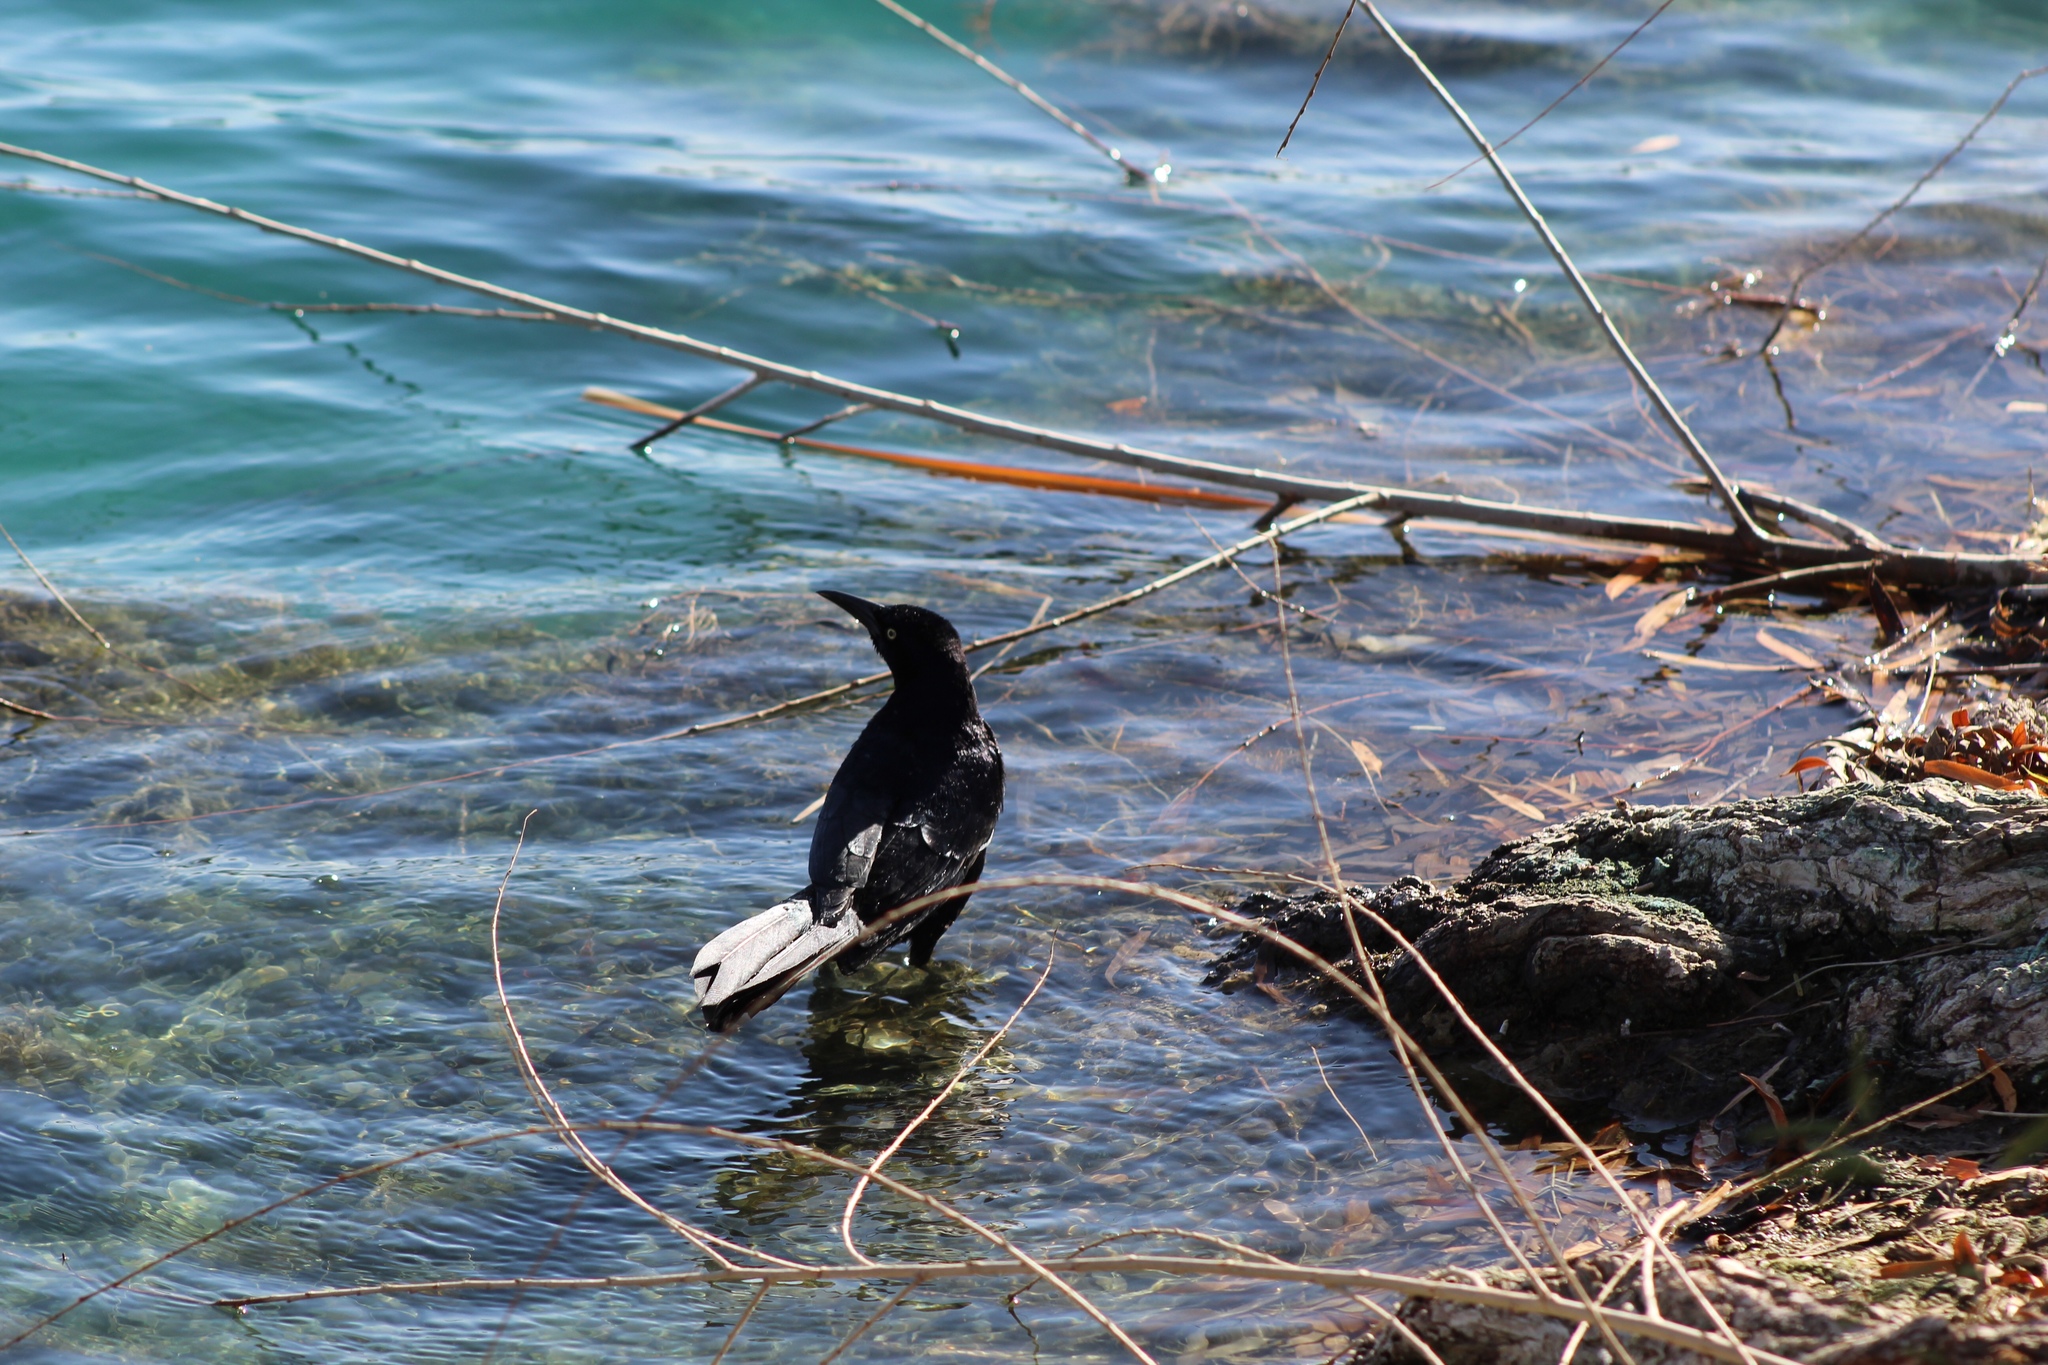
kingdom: Animalia
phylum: Chordata
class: Aves
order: Passeriformes
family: Icteridae
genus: Quiscalus
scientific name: Quiscalus mexicanus
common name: Great-tailed grackle
